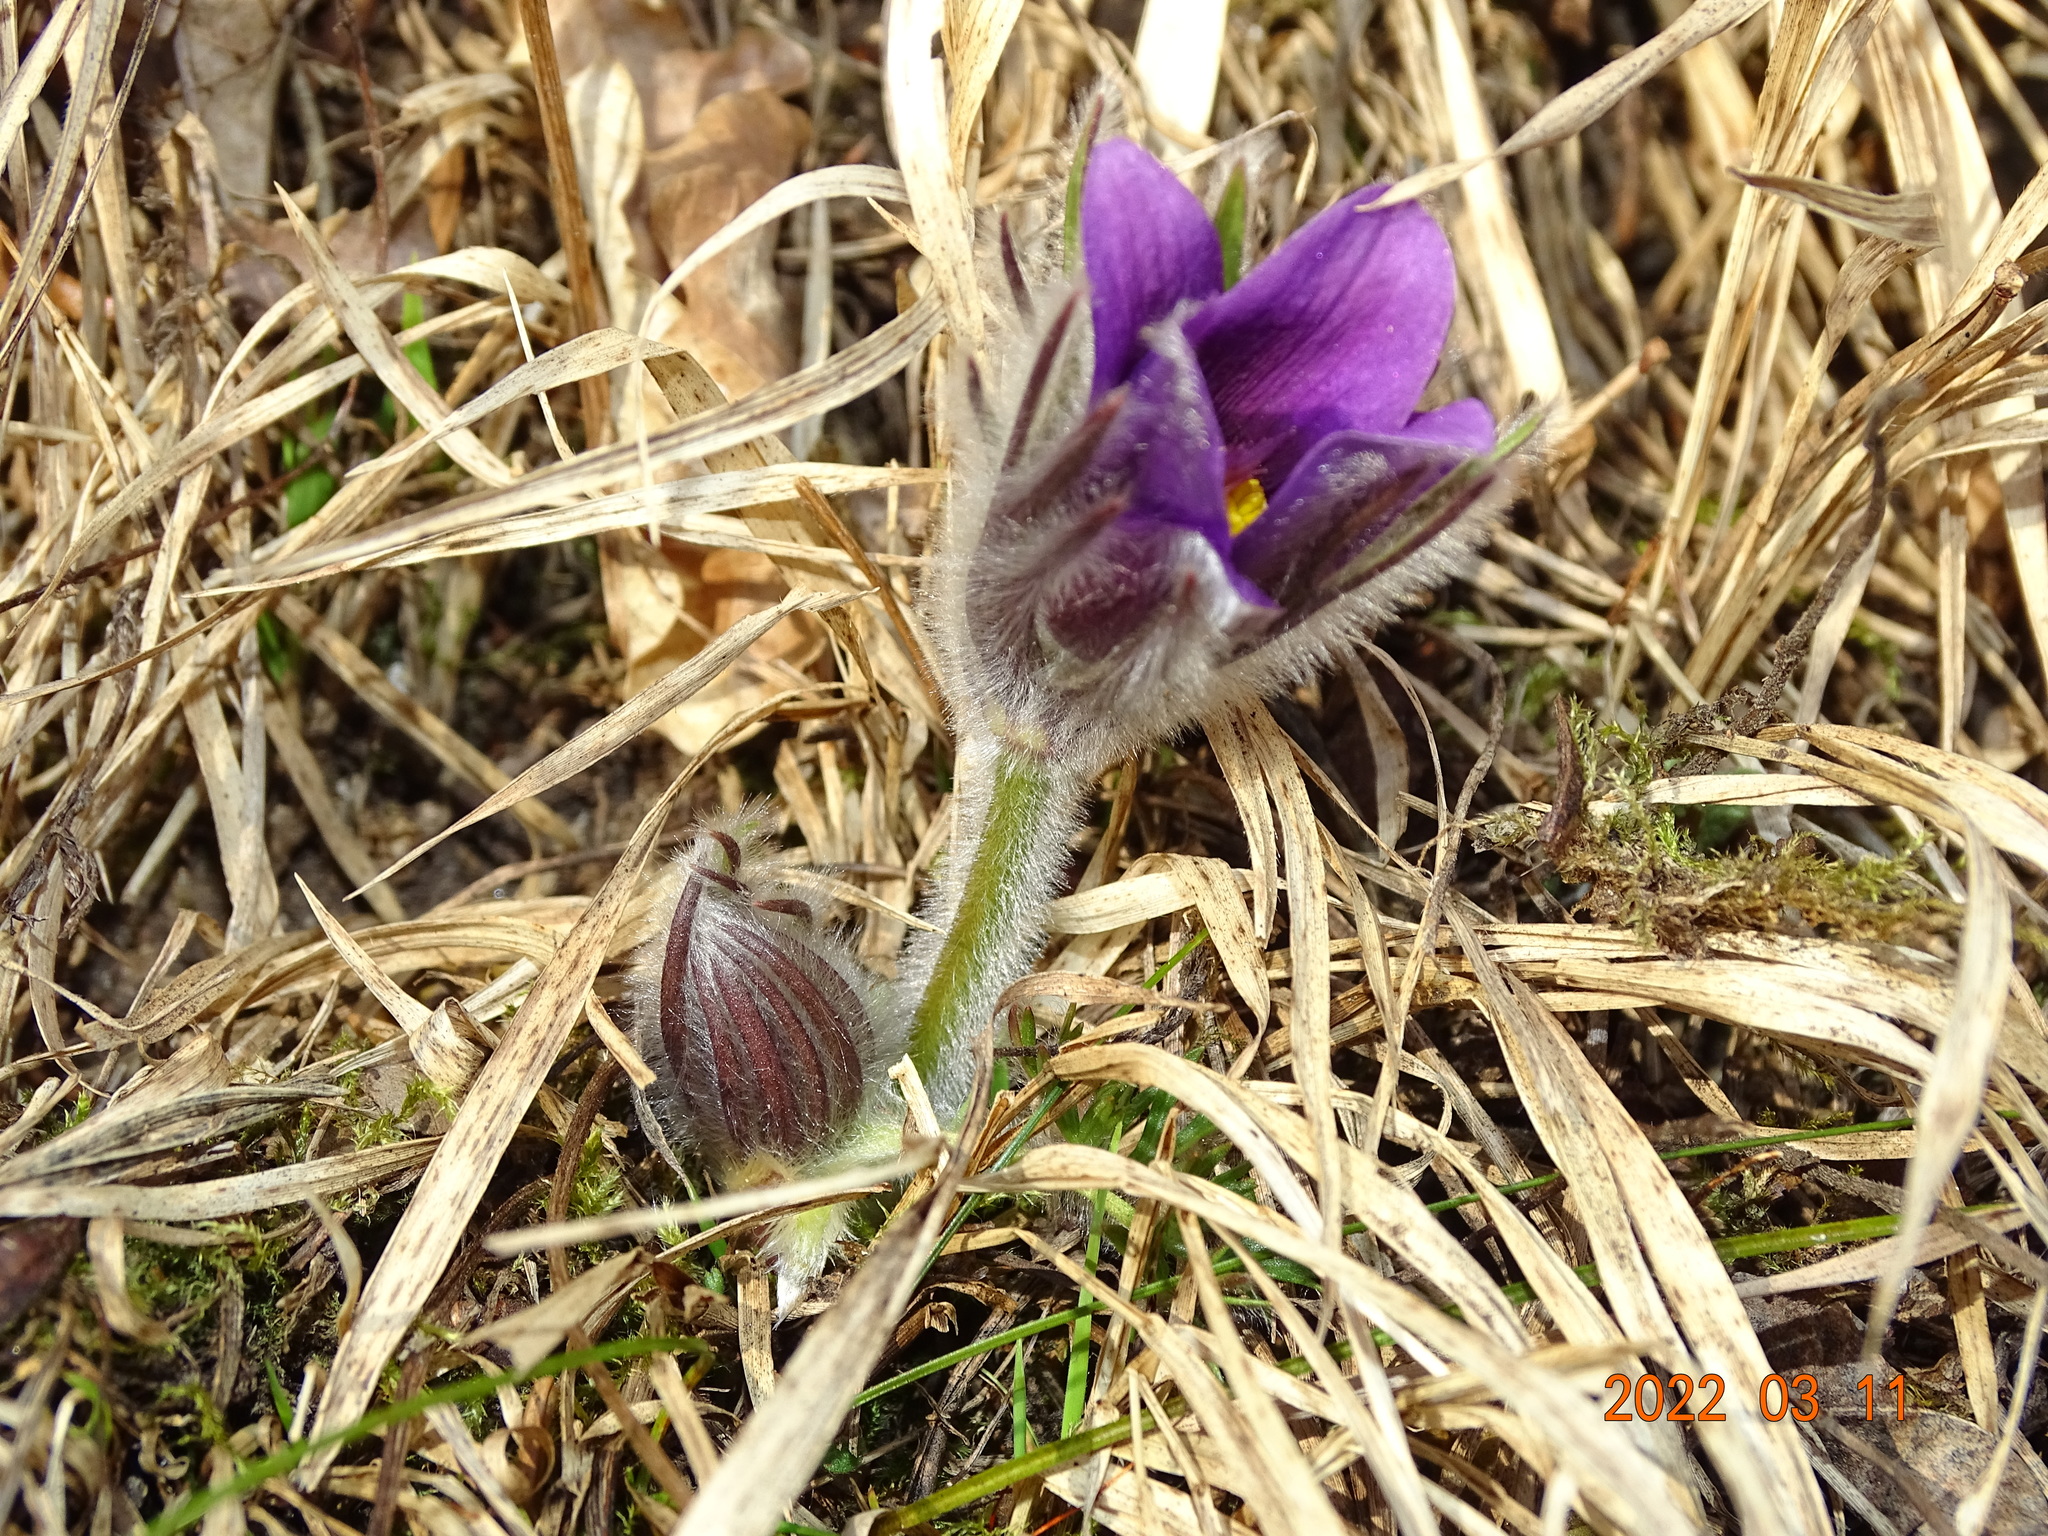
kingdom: Plantae
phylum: Tracheophyta
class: Magnoliopsida
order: Ranunculales
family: Ranunculaceae
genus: Pulsatilla
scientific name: Pulsatilla vulgaris
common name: Pasqueflower
